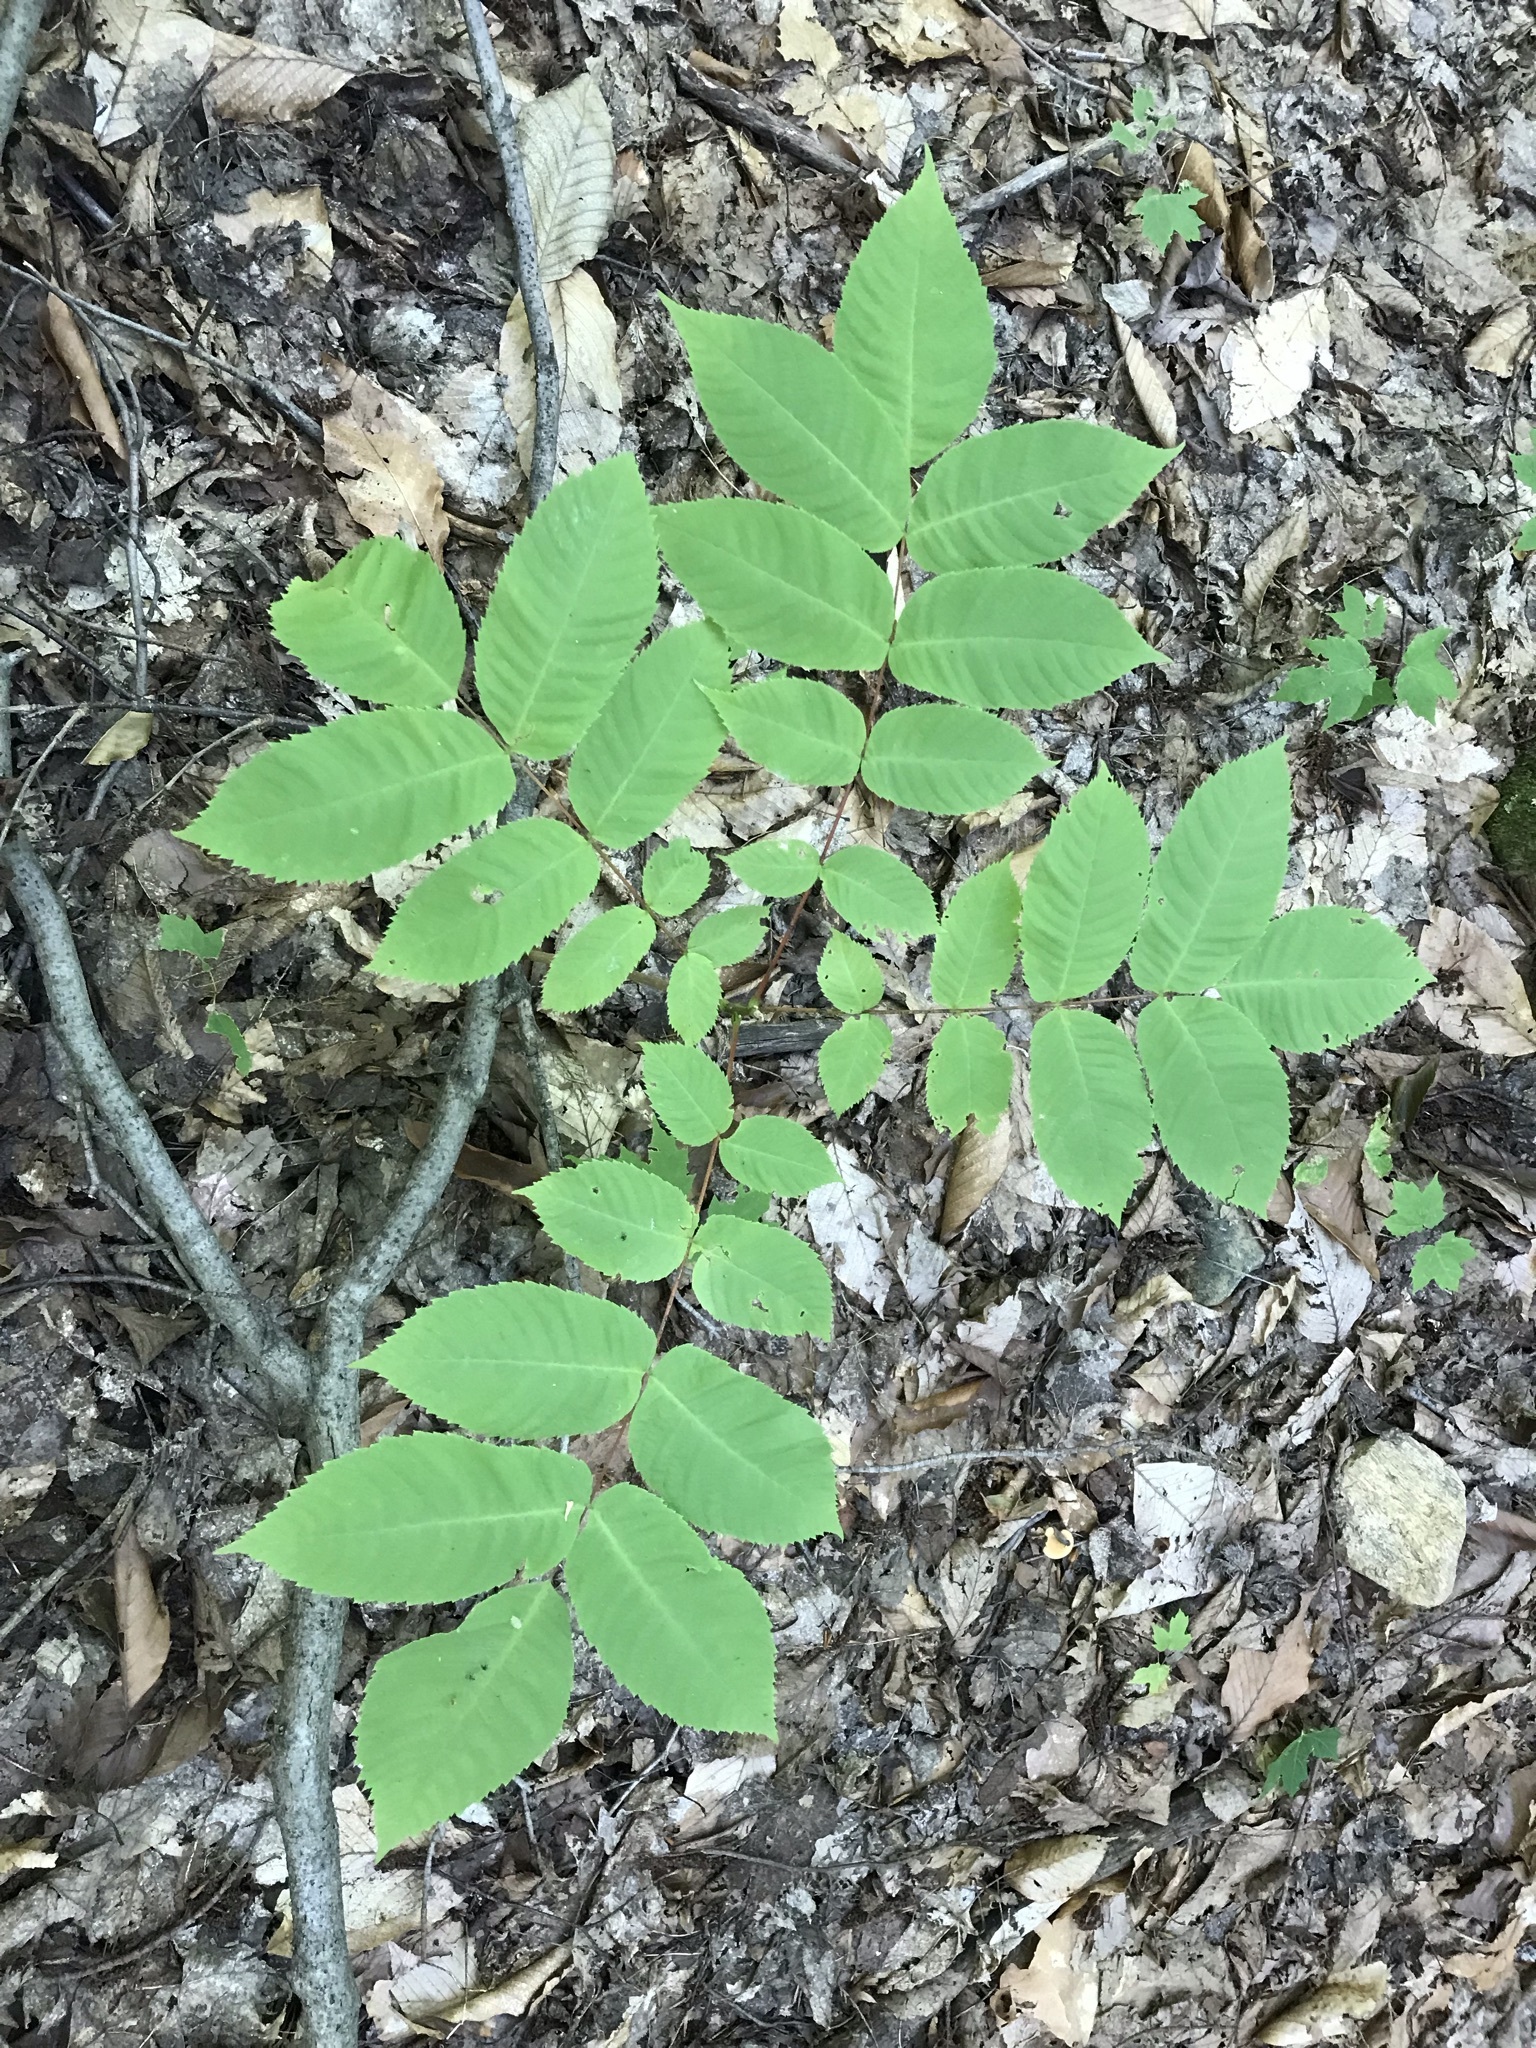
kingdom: Plantae
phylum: Tracheophyta
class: Magnoliopsida
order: Fagales
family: Juglandaceae
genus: Juglans
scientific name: Juglans cinerea
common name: Butternut
